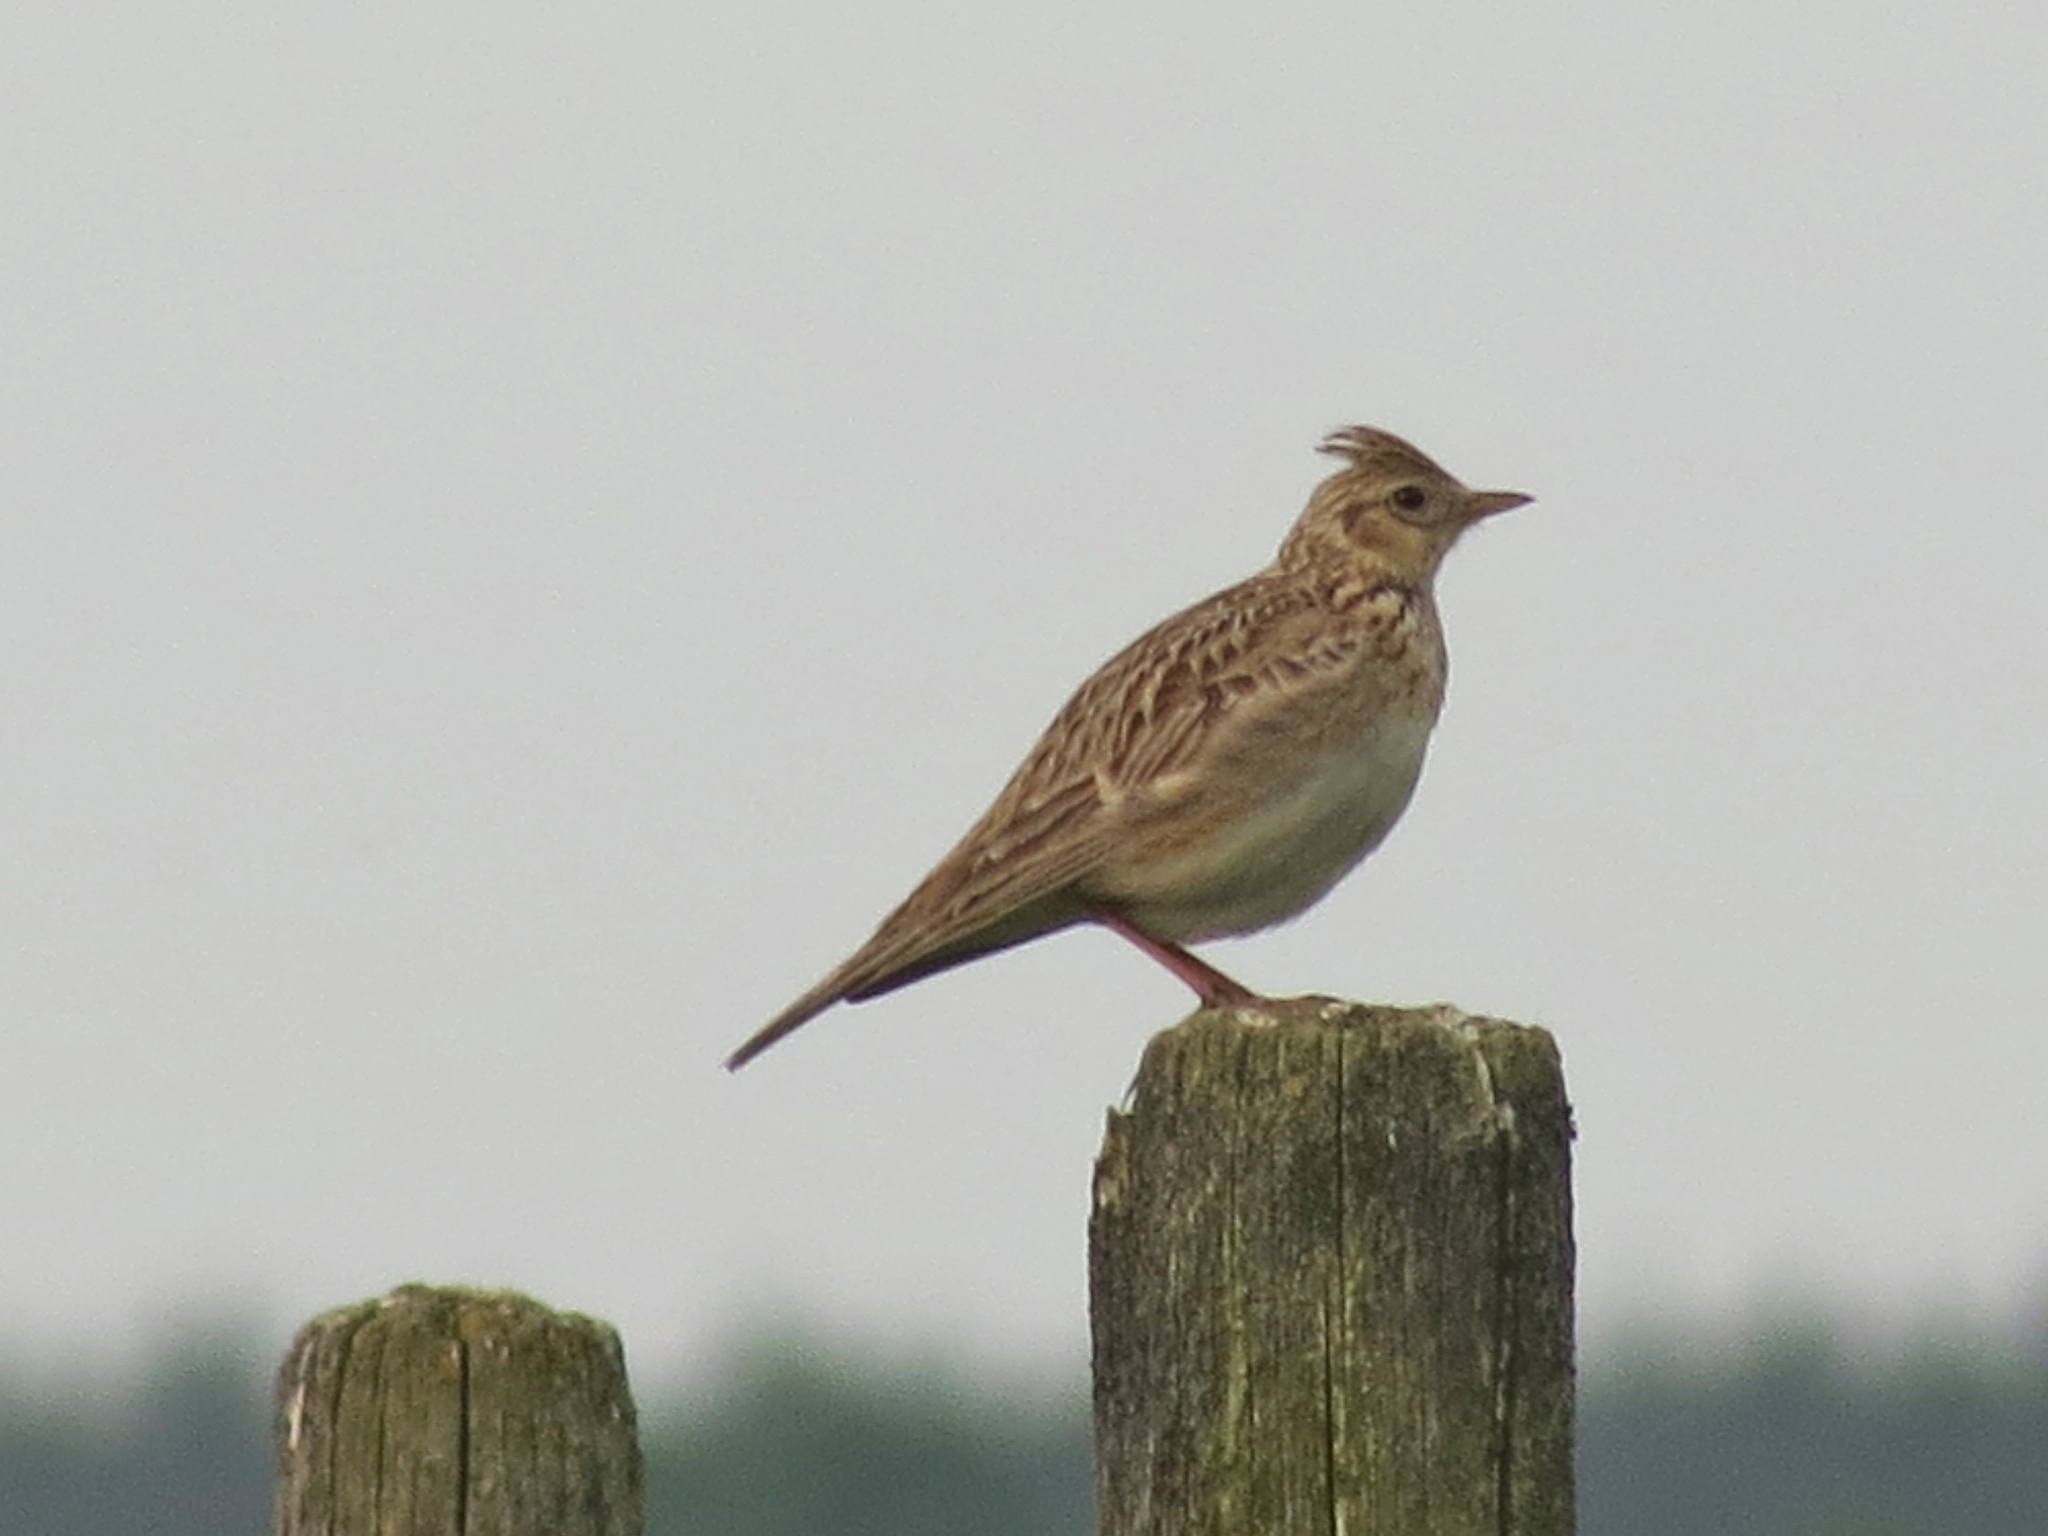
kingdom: Animalia
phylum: Chordata
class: Aves
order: Passeriformes
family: Alaudidae
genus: Alauda
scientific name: Alauda arvensis
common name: Eurasian skylark
